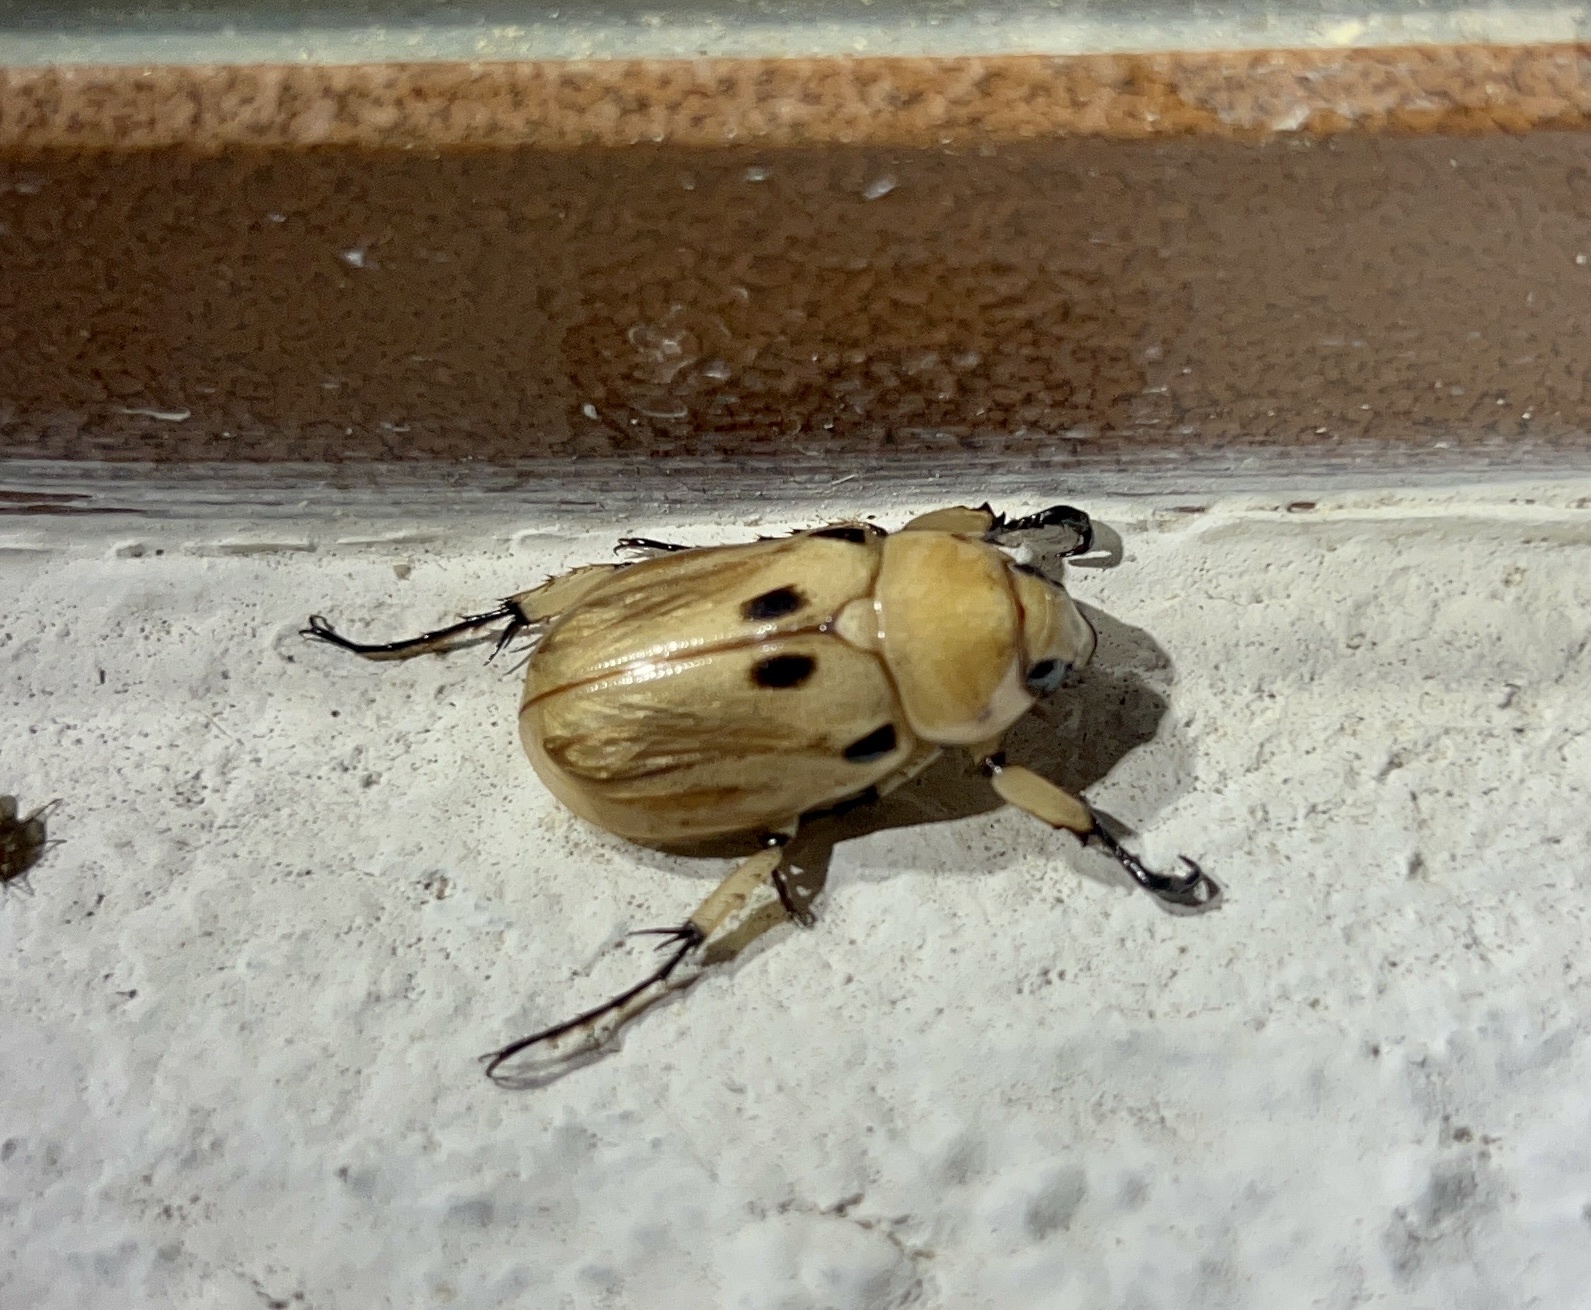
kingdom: Animalia
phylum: Arthropoda
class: Insecta
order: Coleoptera
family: Scarabaeidae
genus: Ancognatha
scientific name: Ancognatha vulgaris
